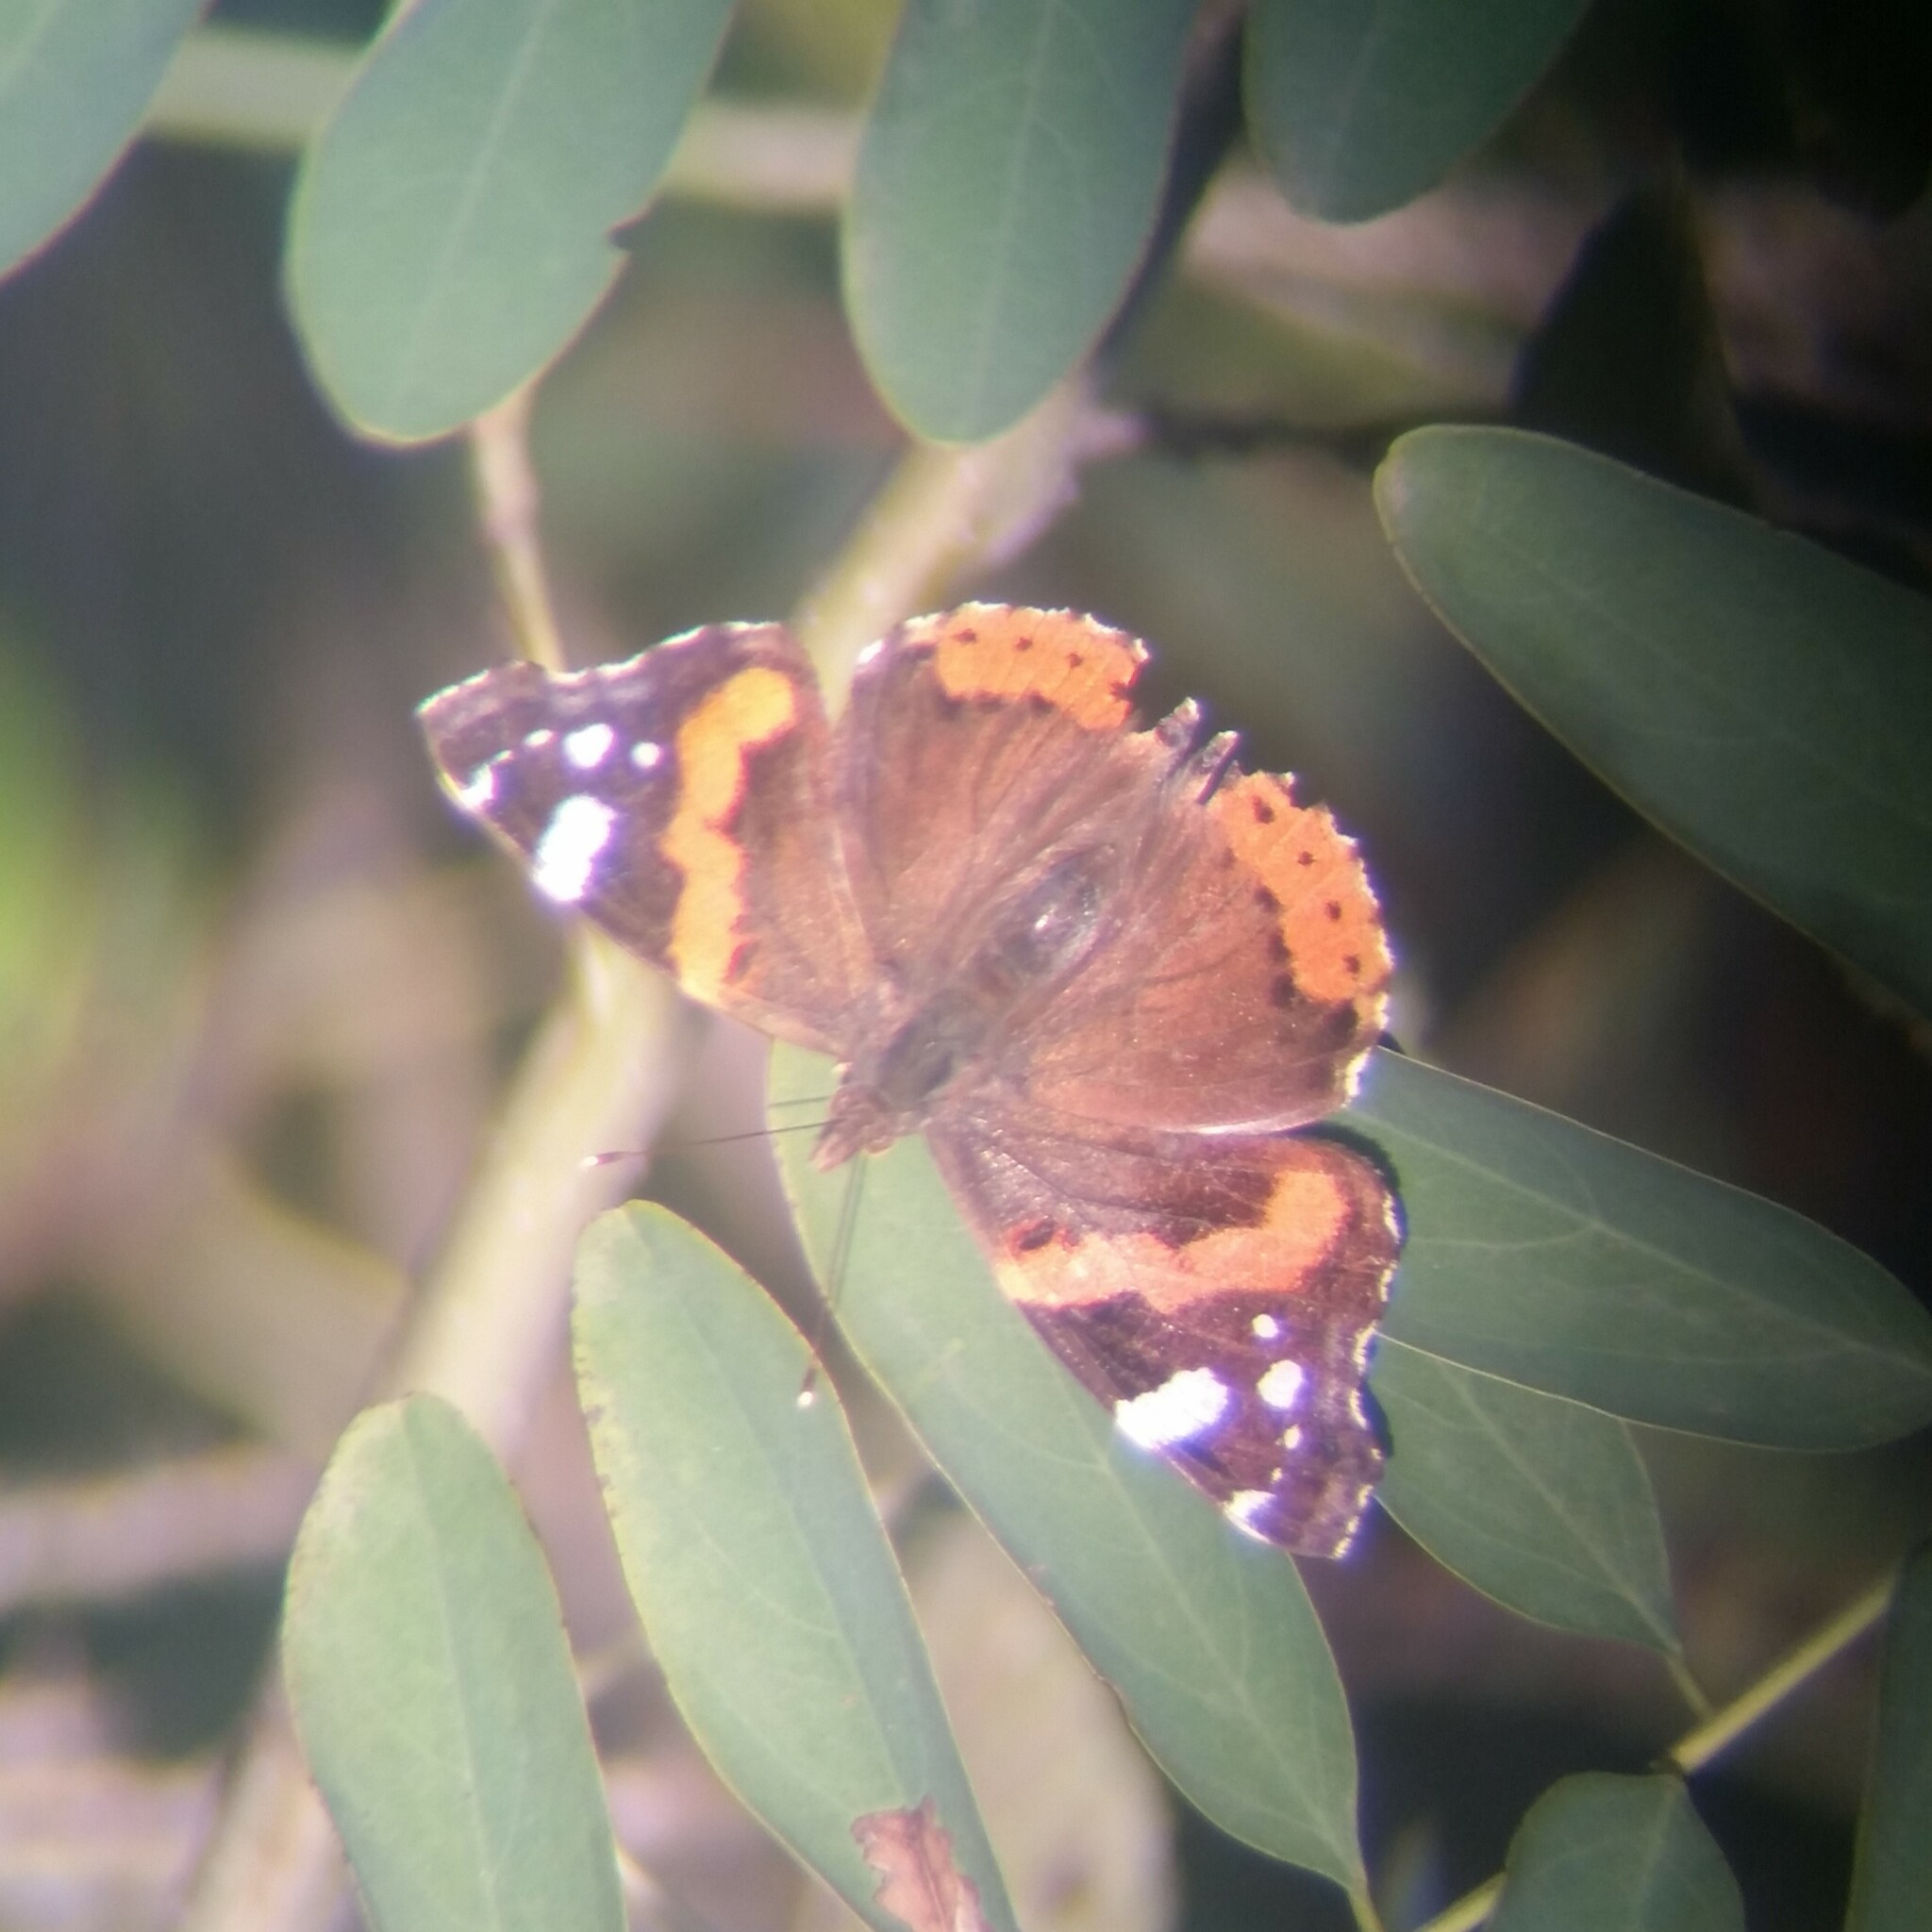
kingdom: Animalia
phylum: Arthropoda
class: Insecta
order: Lepidoptera
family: Nymphalidae
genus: Vanessa
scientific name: Vanessa atalanta
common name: Red admiral
